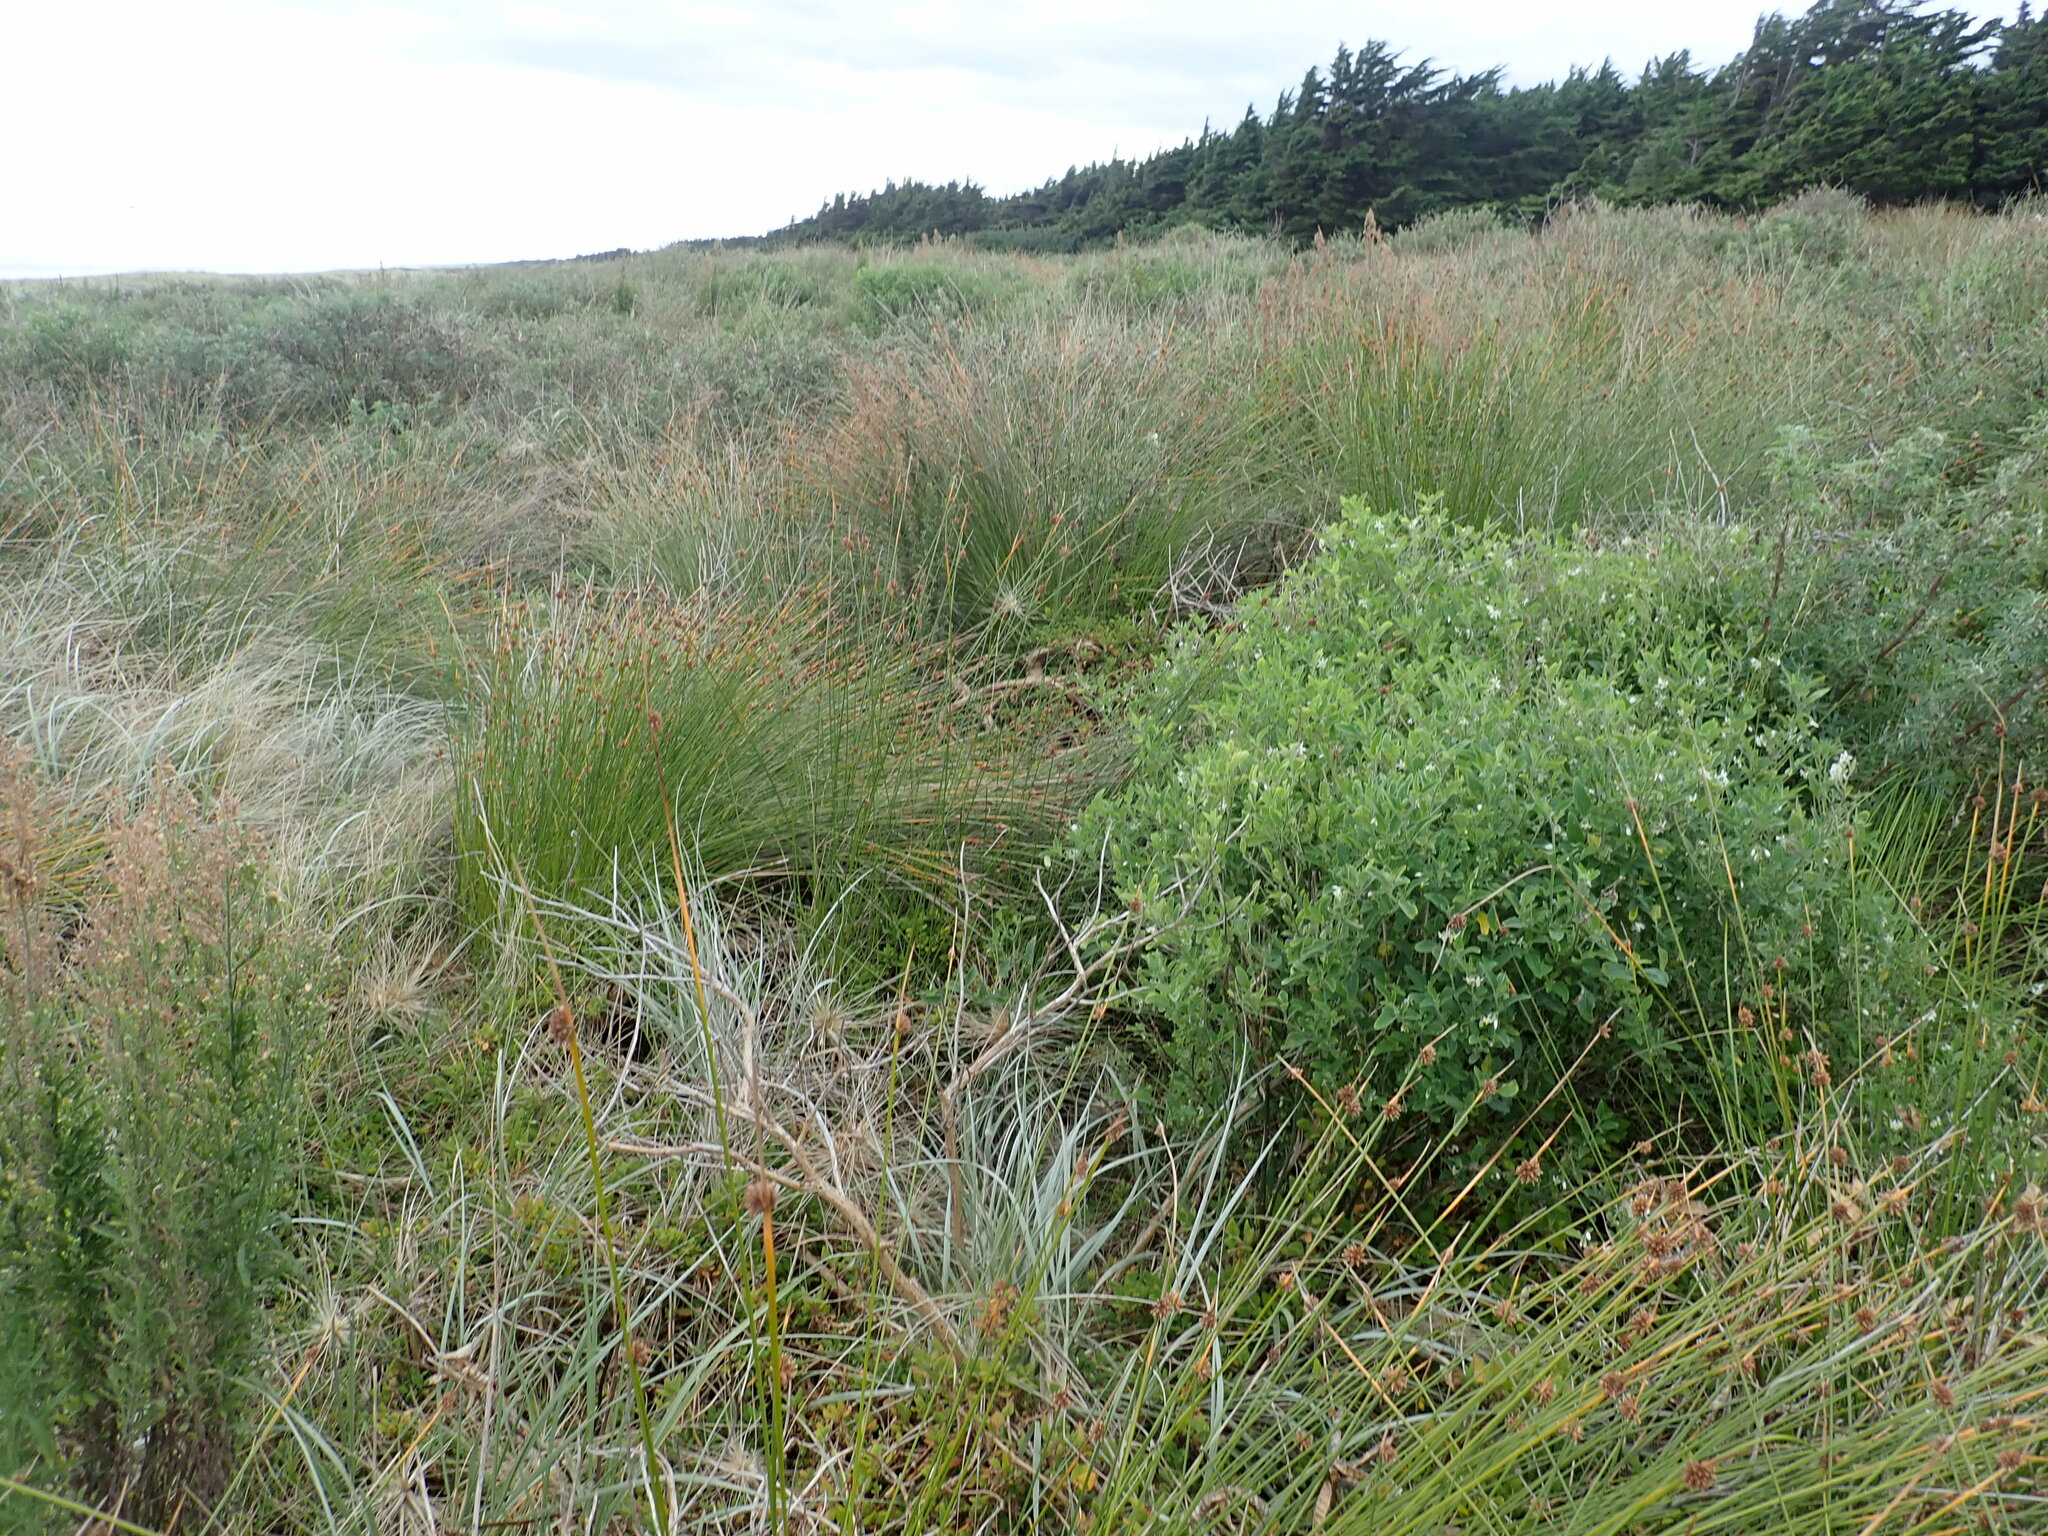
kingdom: Plantae
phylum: Tracheophyta
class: Magnoliopsida
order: Solanales
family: Solanaceae
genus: Solanum
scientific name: Solanum chenopodioides
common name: Tall nightshade
